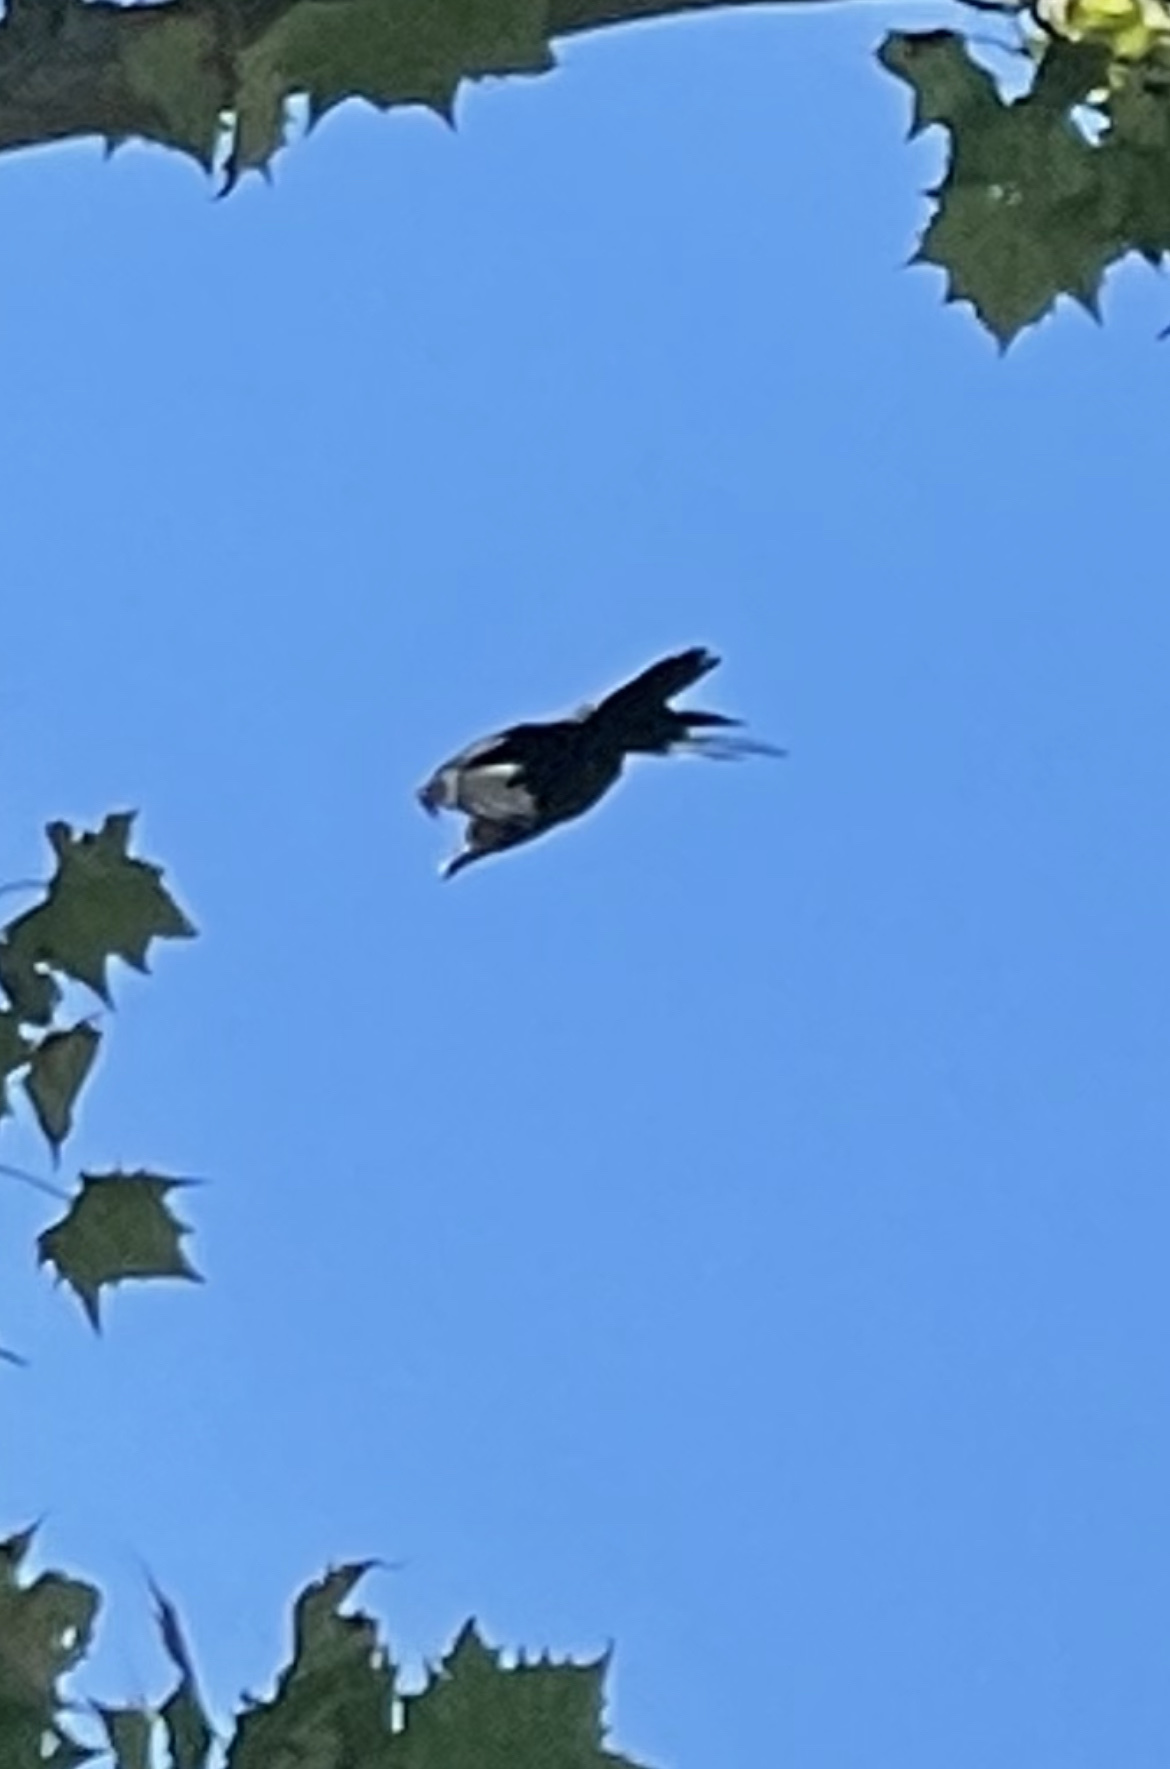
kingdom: Animalia
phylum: Chordata
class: Aves
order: Passeriformes
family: Corvidae
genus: Corvus
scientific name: Corvus brachyrhynchos
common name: American crow
